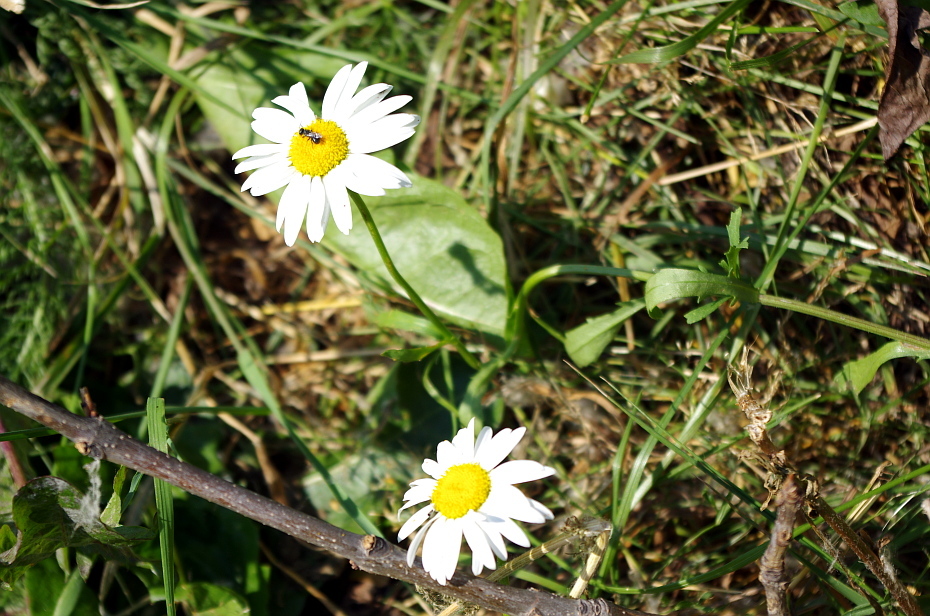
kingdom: Plantae
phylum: Tracheophyta
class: Magnoliopsida
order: Asterales
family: Asteraceae
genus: Leucanthemum
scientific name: Leucanthemum vulgare
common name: Oxeye daisy
